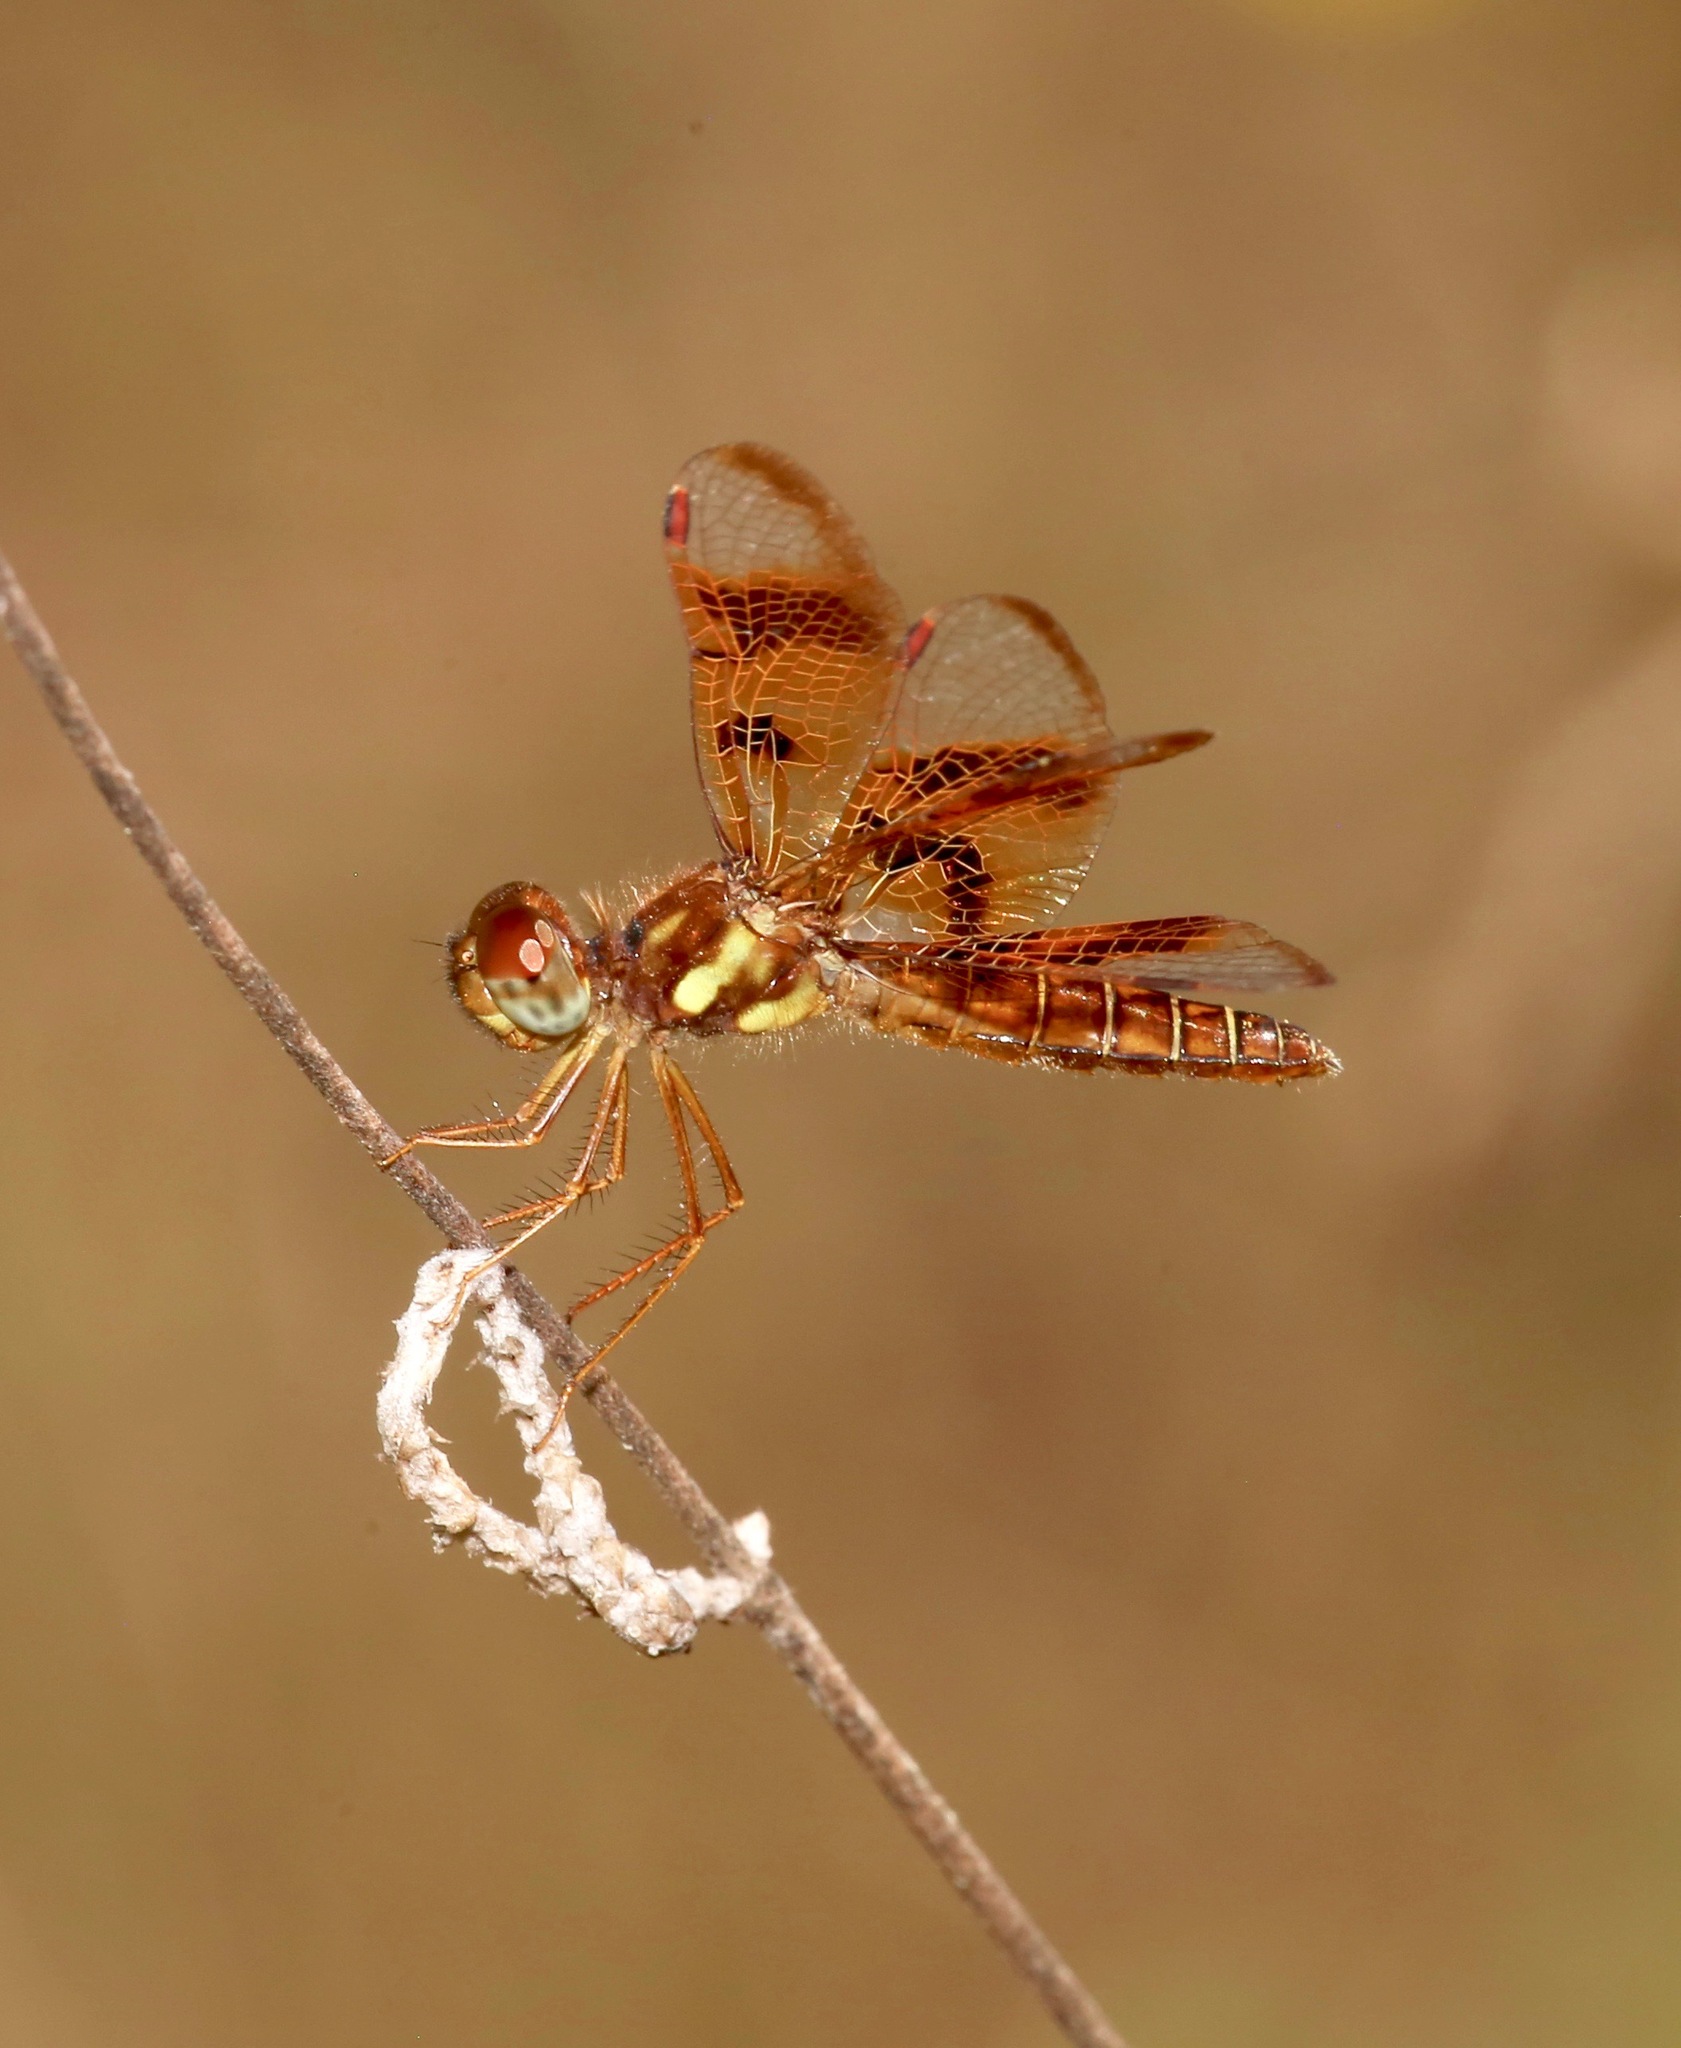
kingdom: Animalia
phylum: Arthropoda
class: Insecta
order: Odonata
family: Libellulidae
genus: Perithemis
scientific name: Perithemis tenera
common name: Eastern amberwing
